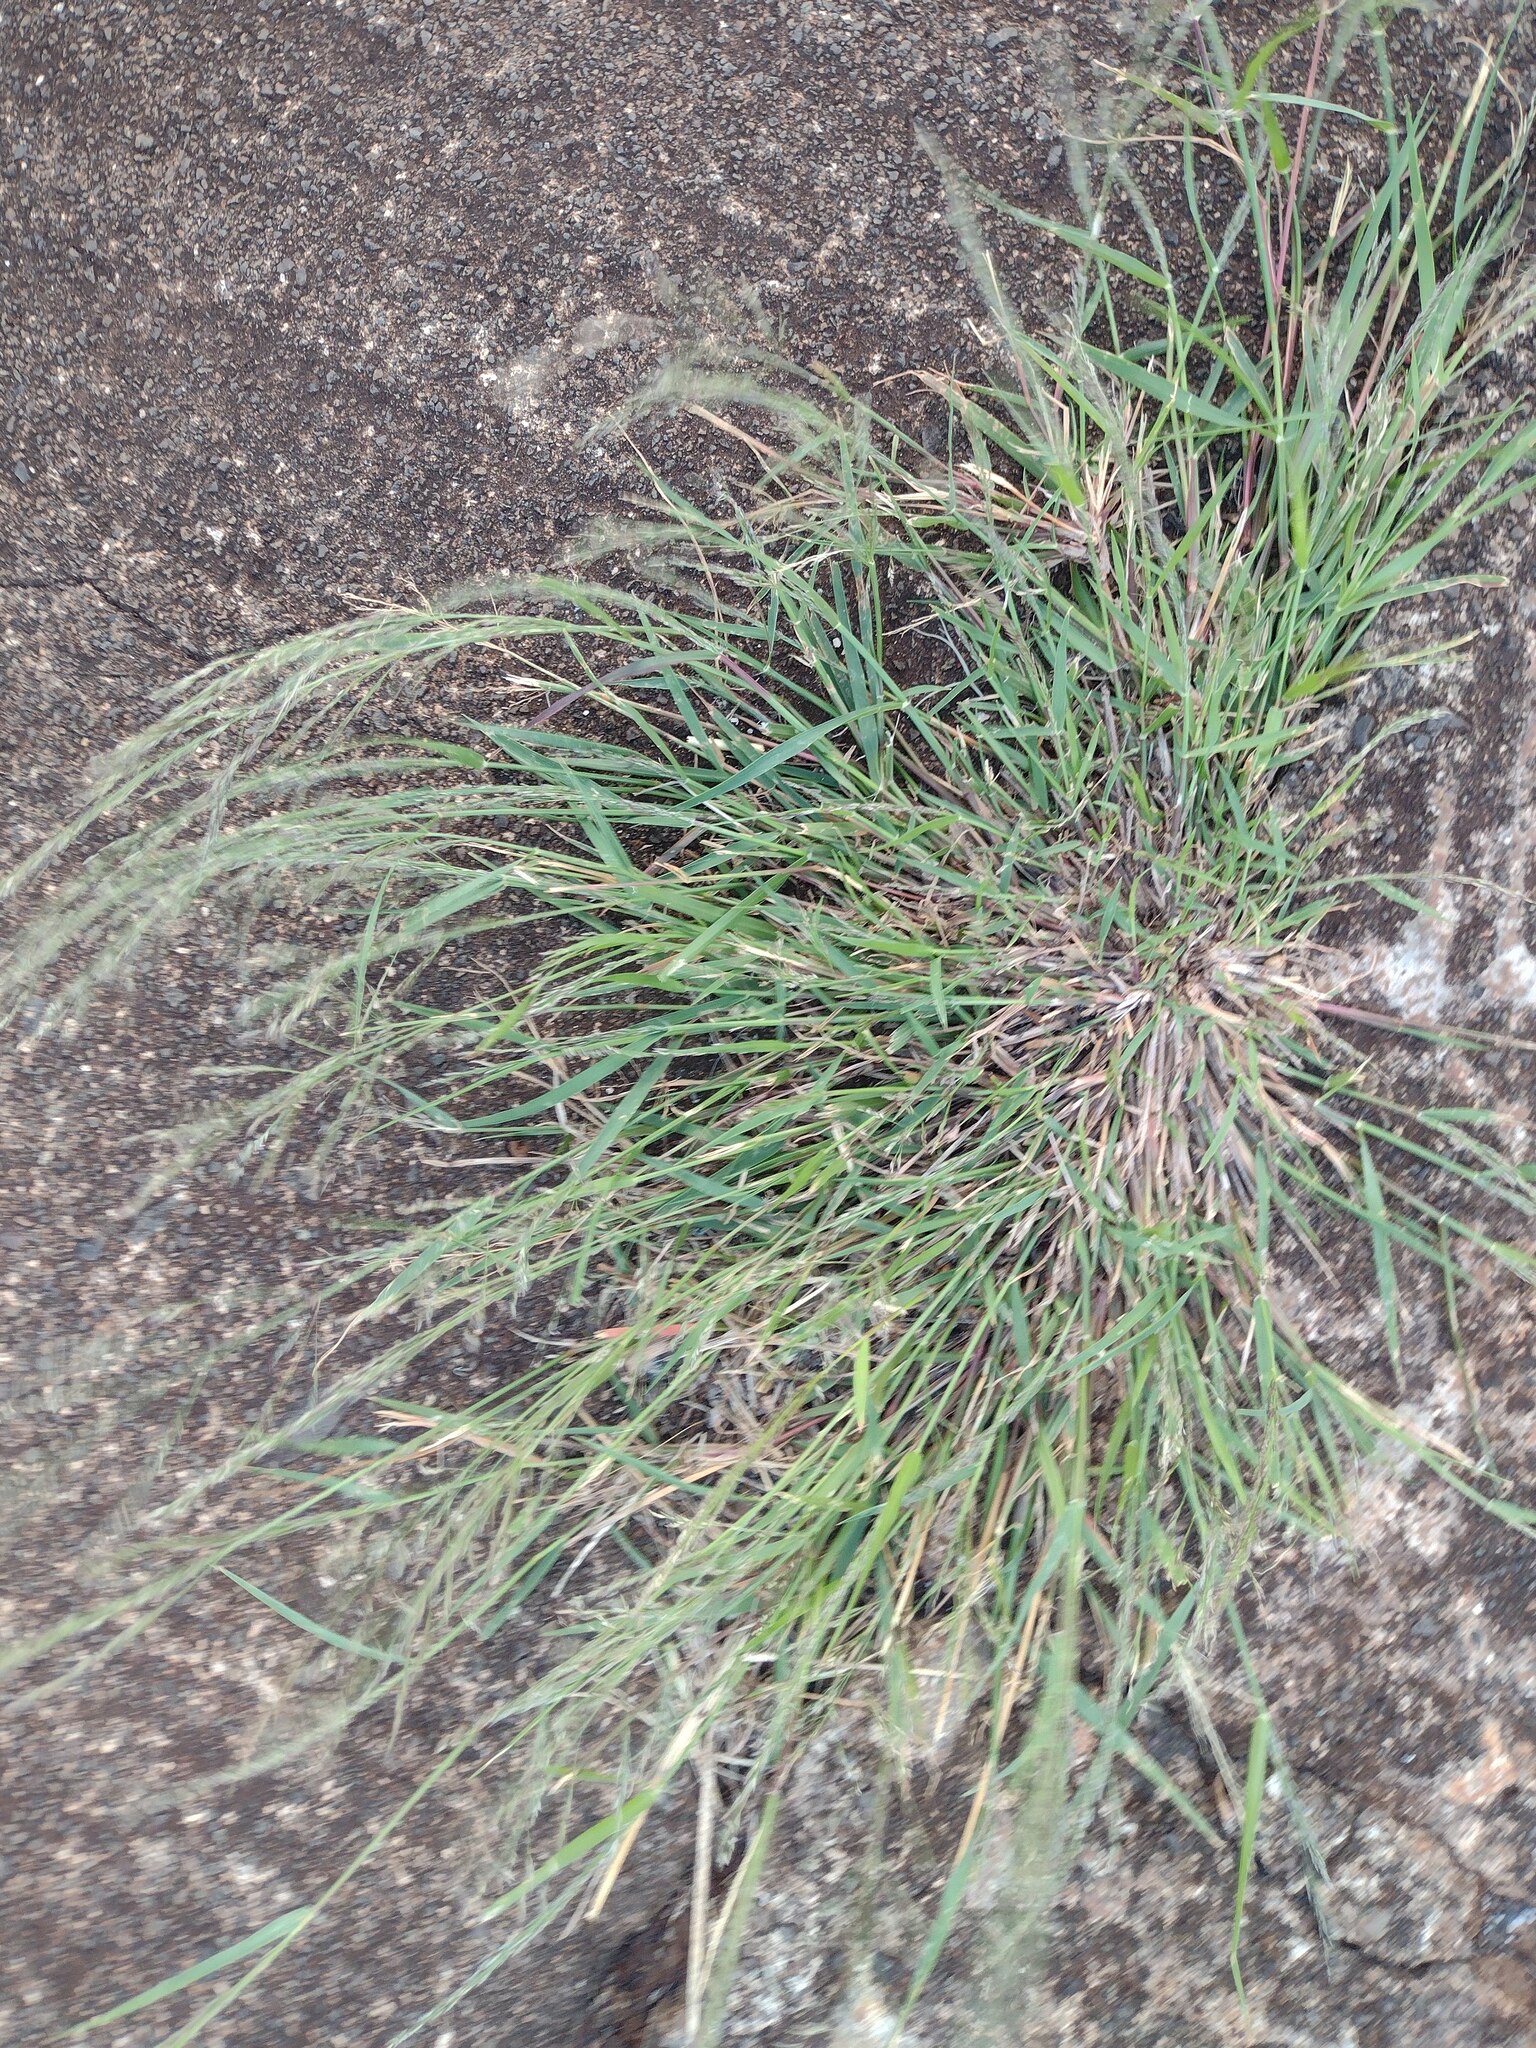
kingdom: Plantae
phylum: Tracheophyta
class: Liliopsida
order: Poales
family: Poaceae
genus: Eragrostis
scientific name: Eragrostis pilosa
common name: Indian lovegrass
